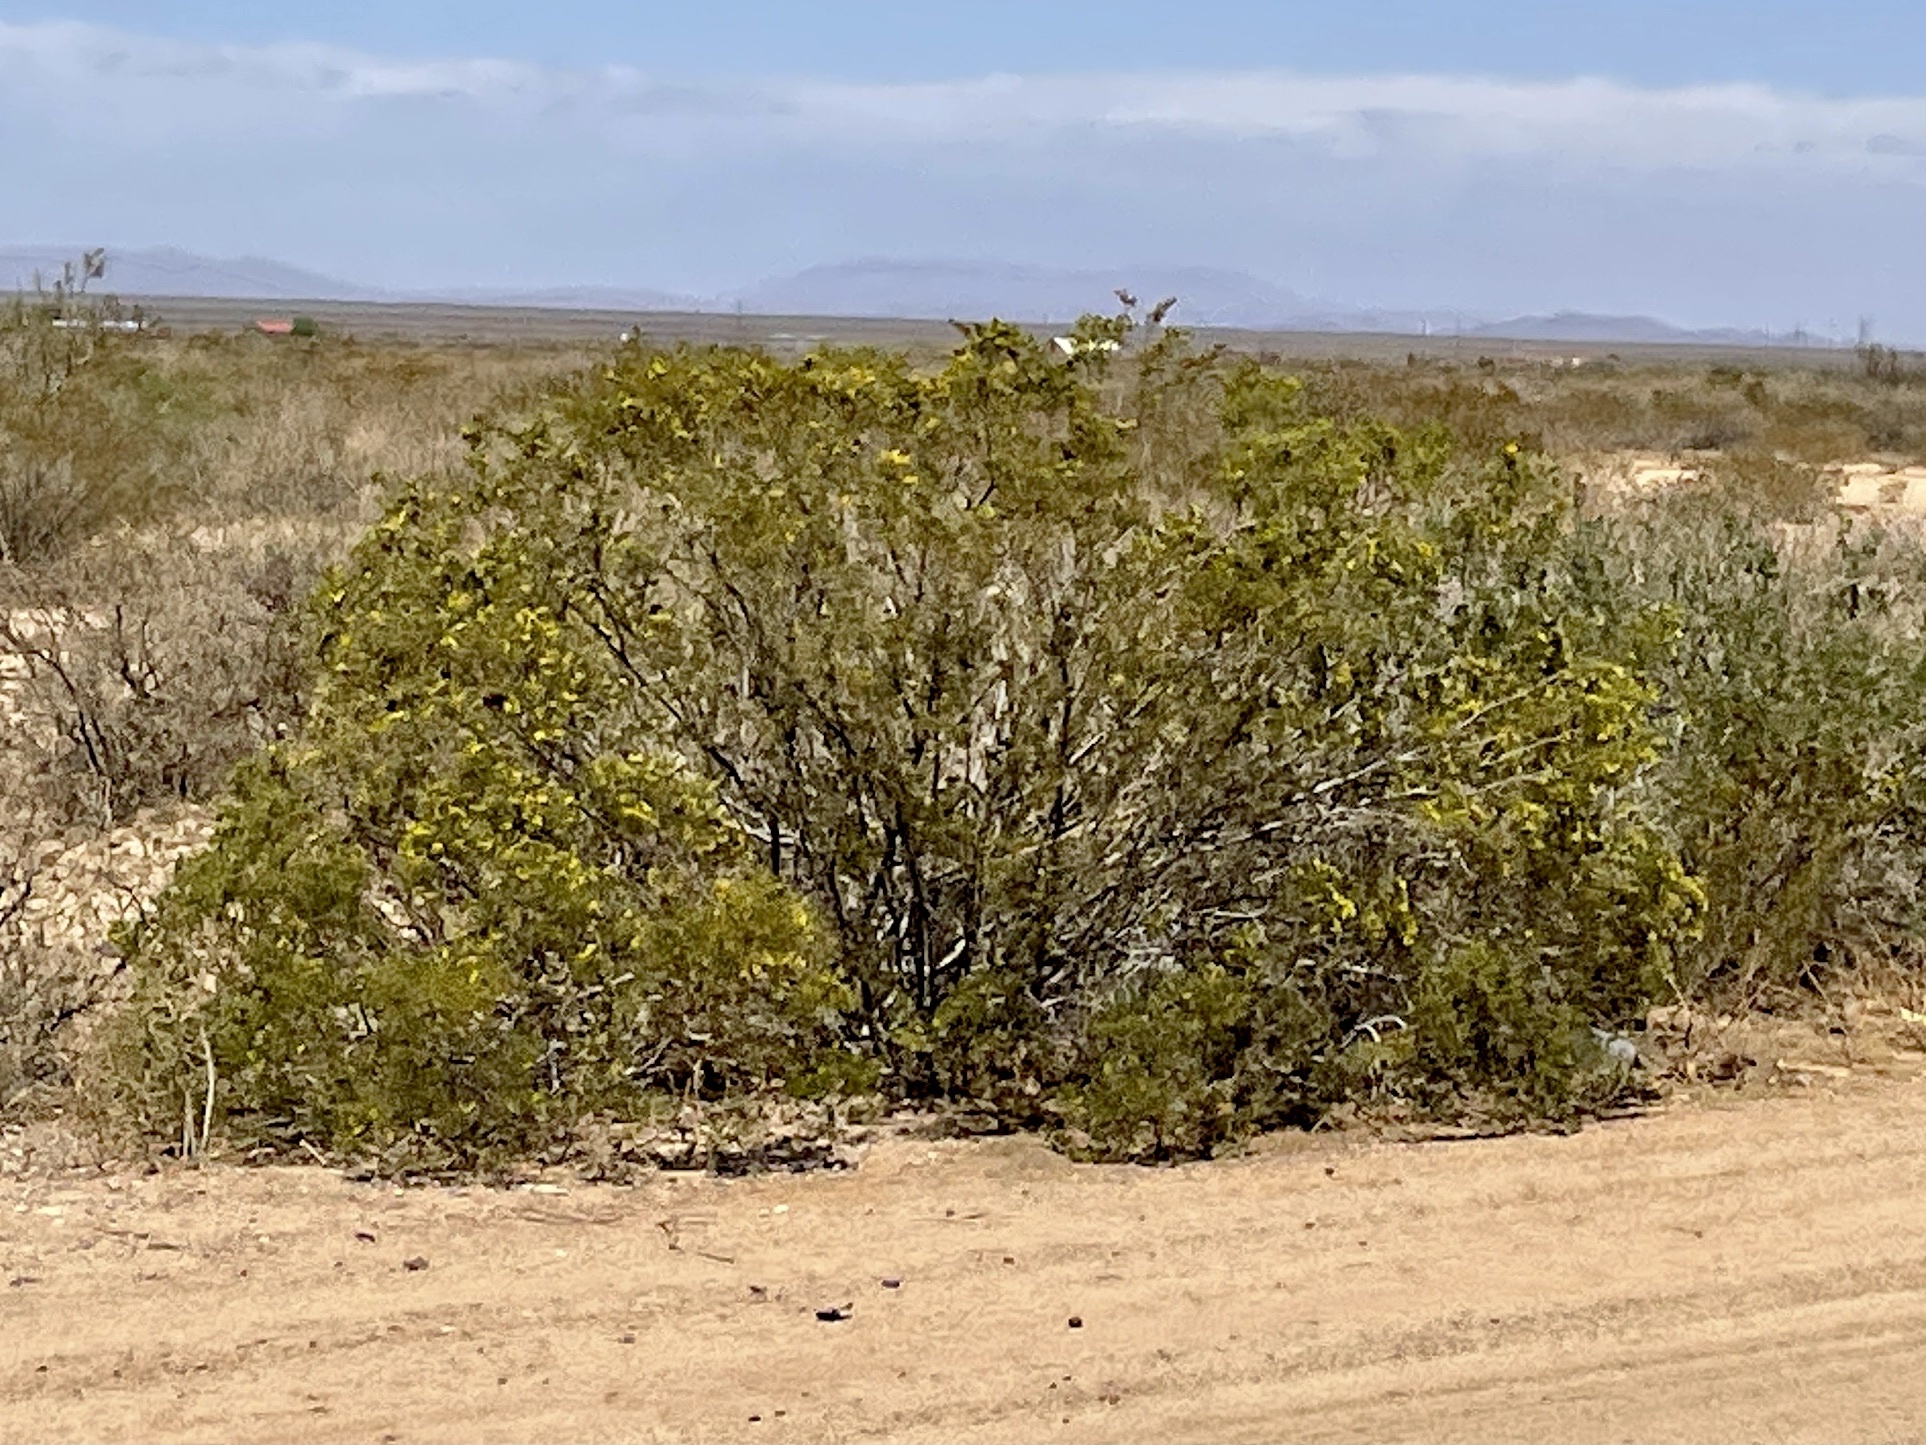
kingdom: Plantae
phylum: Tracheophyta
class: Magnoliopsida
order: Zygophyllales
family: Zygophyllaceae
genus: Larrea
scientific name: Larrea tridentata
